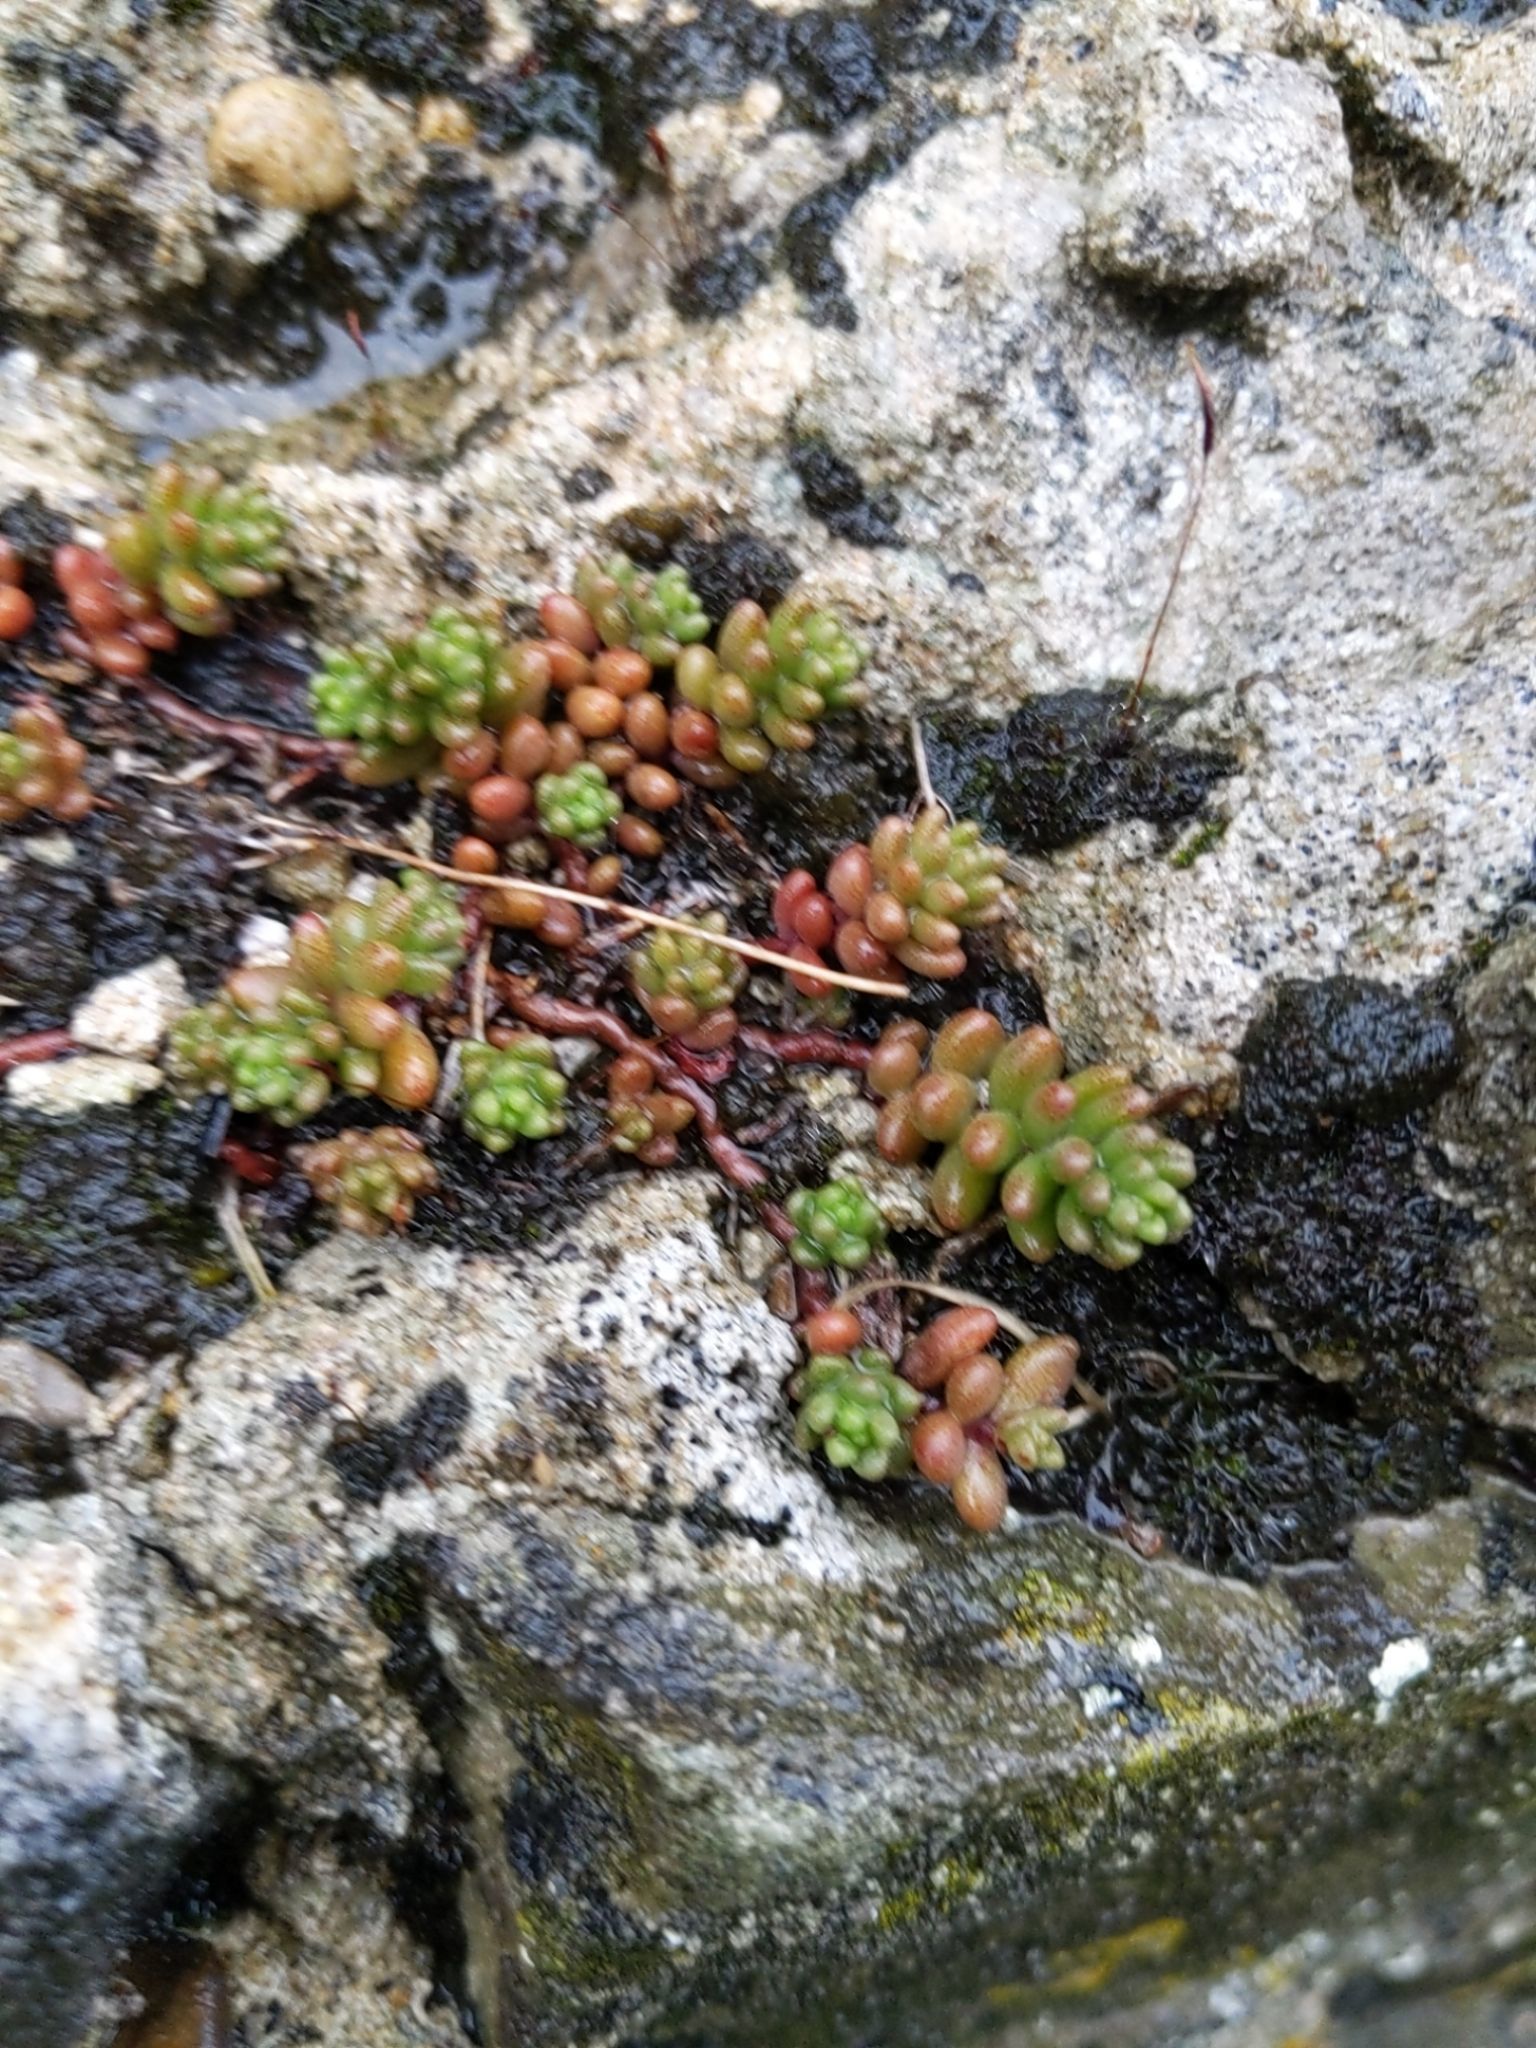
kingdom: Plantae
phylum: Tracheophyta
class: Magnoliopsida
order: Saxifragales
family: Crassulaceae
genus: Sedum
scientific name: Sedum album
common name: White stonecrop
